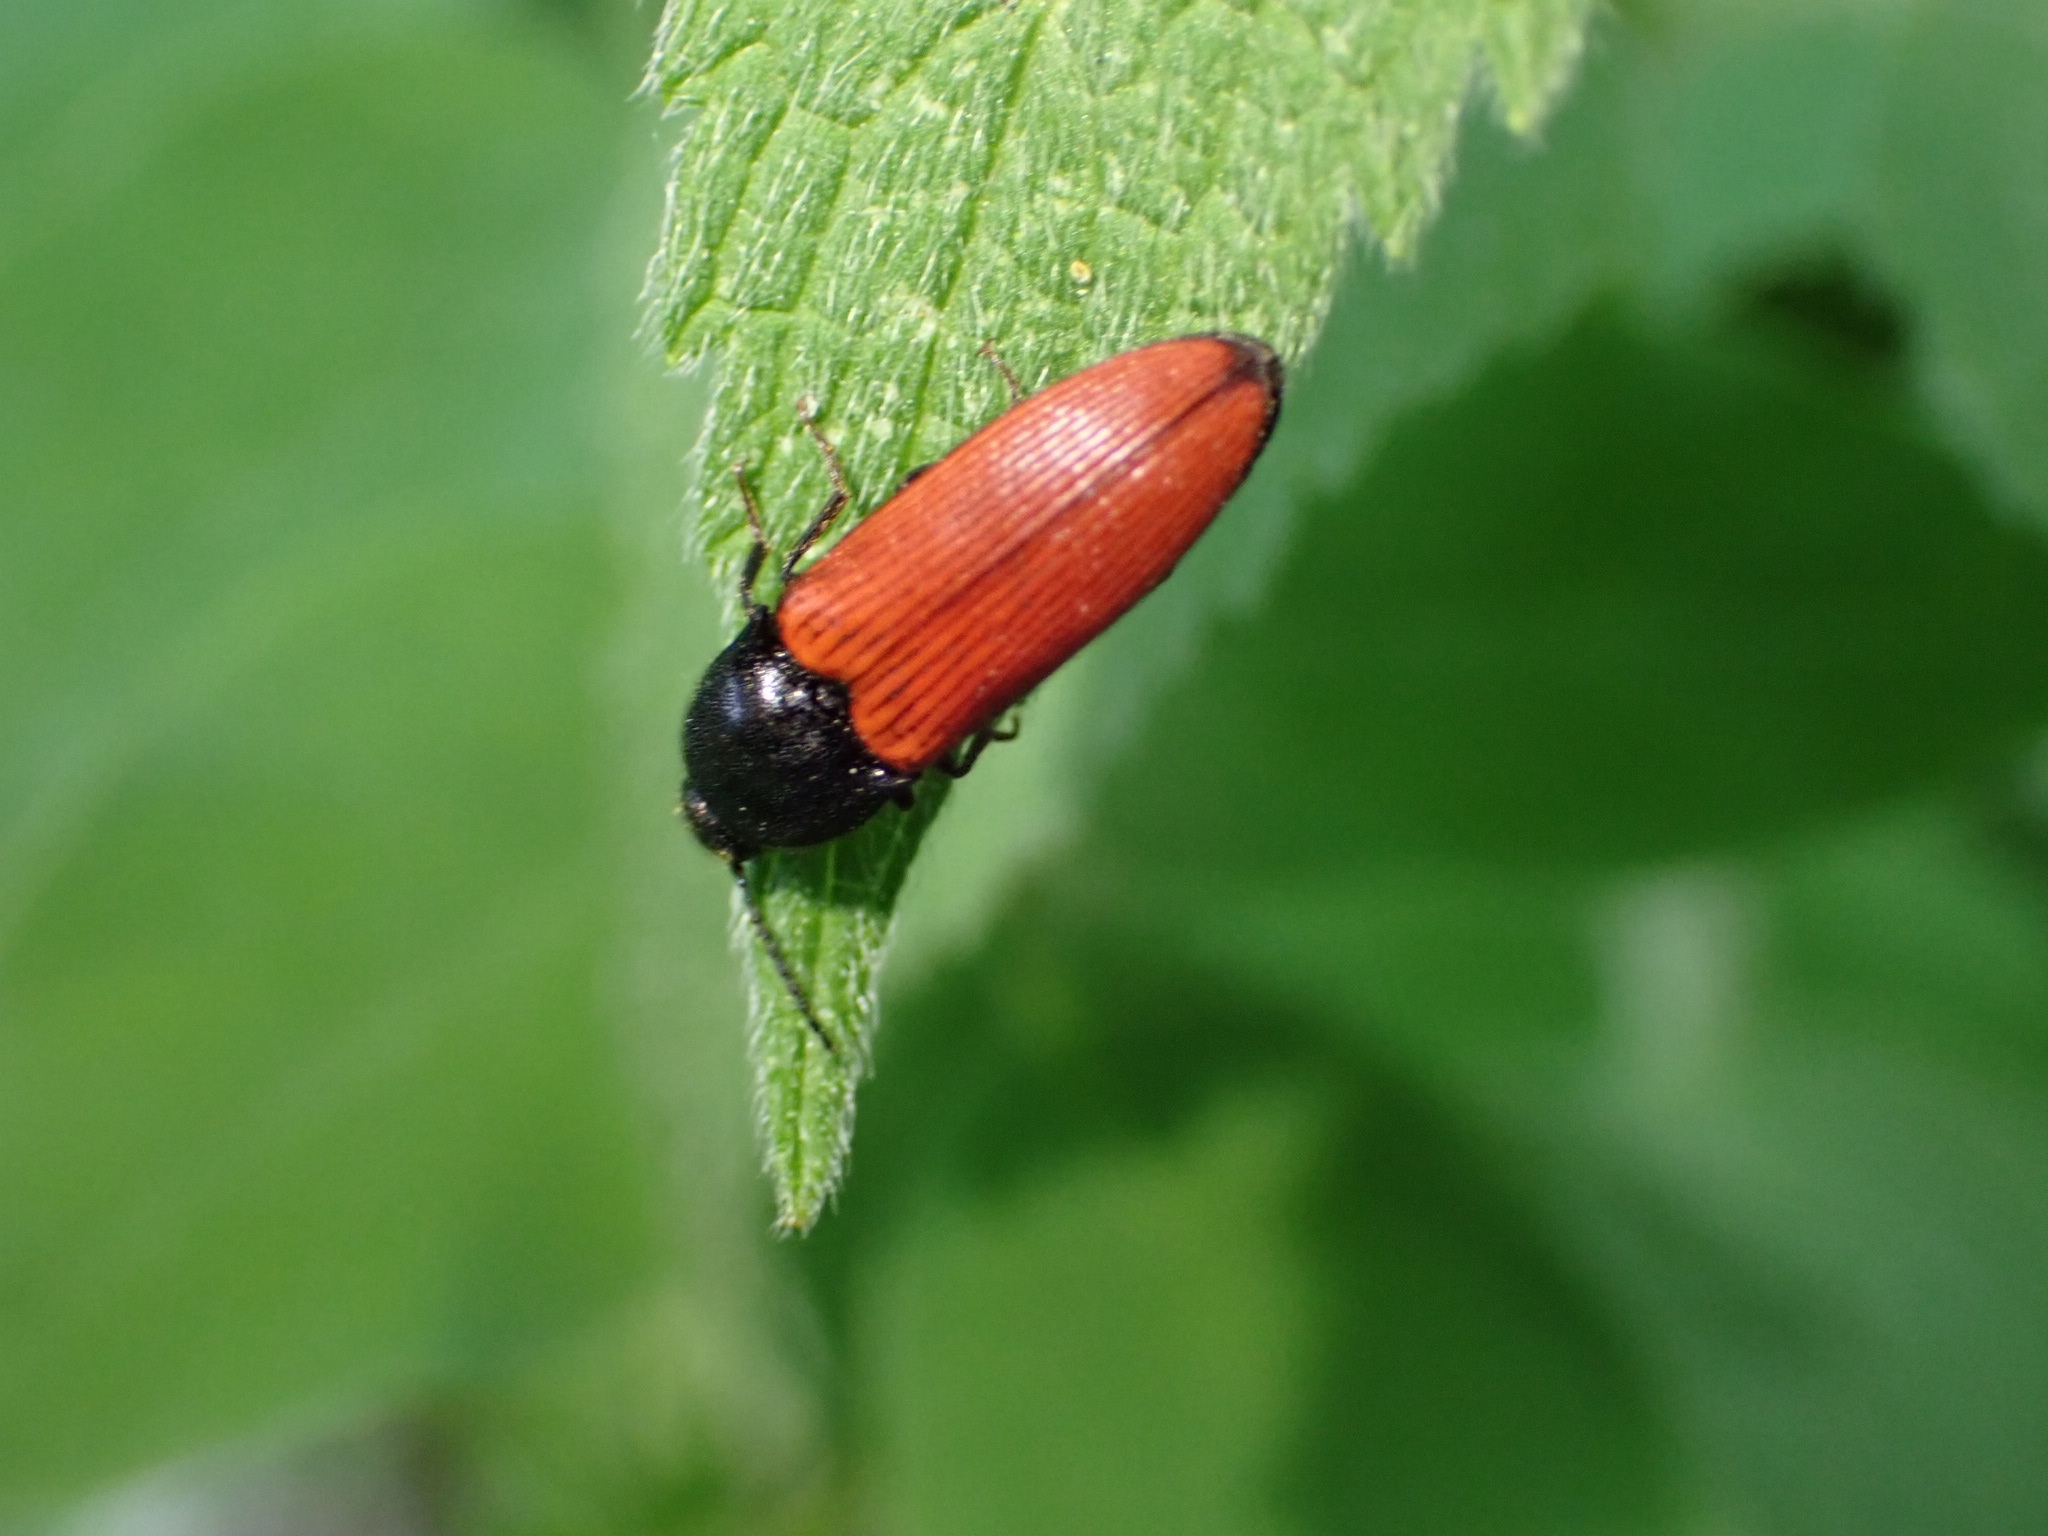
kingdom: Animalia
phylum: Arthropoda
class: Insecta
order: Coleoptera
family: Elateridae
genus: Ampedus
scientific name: Ampedus sanguineus
